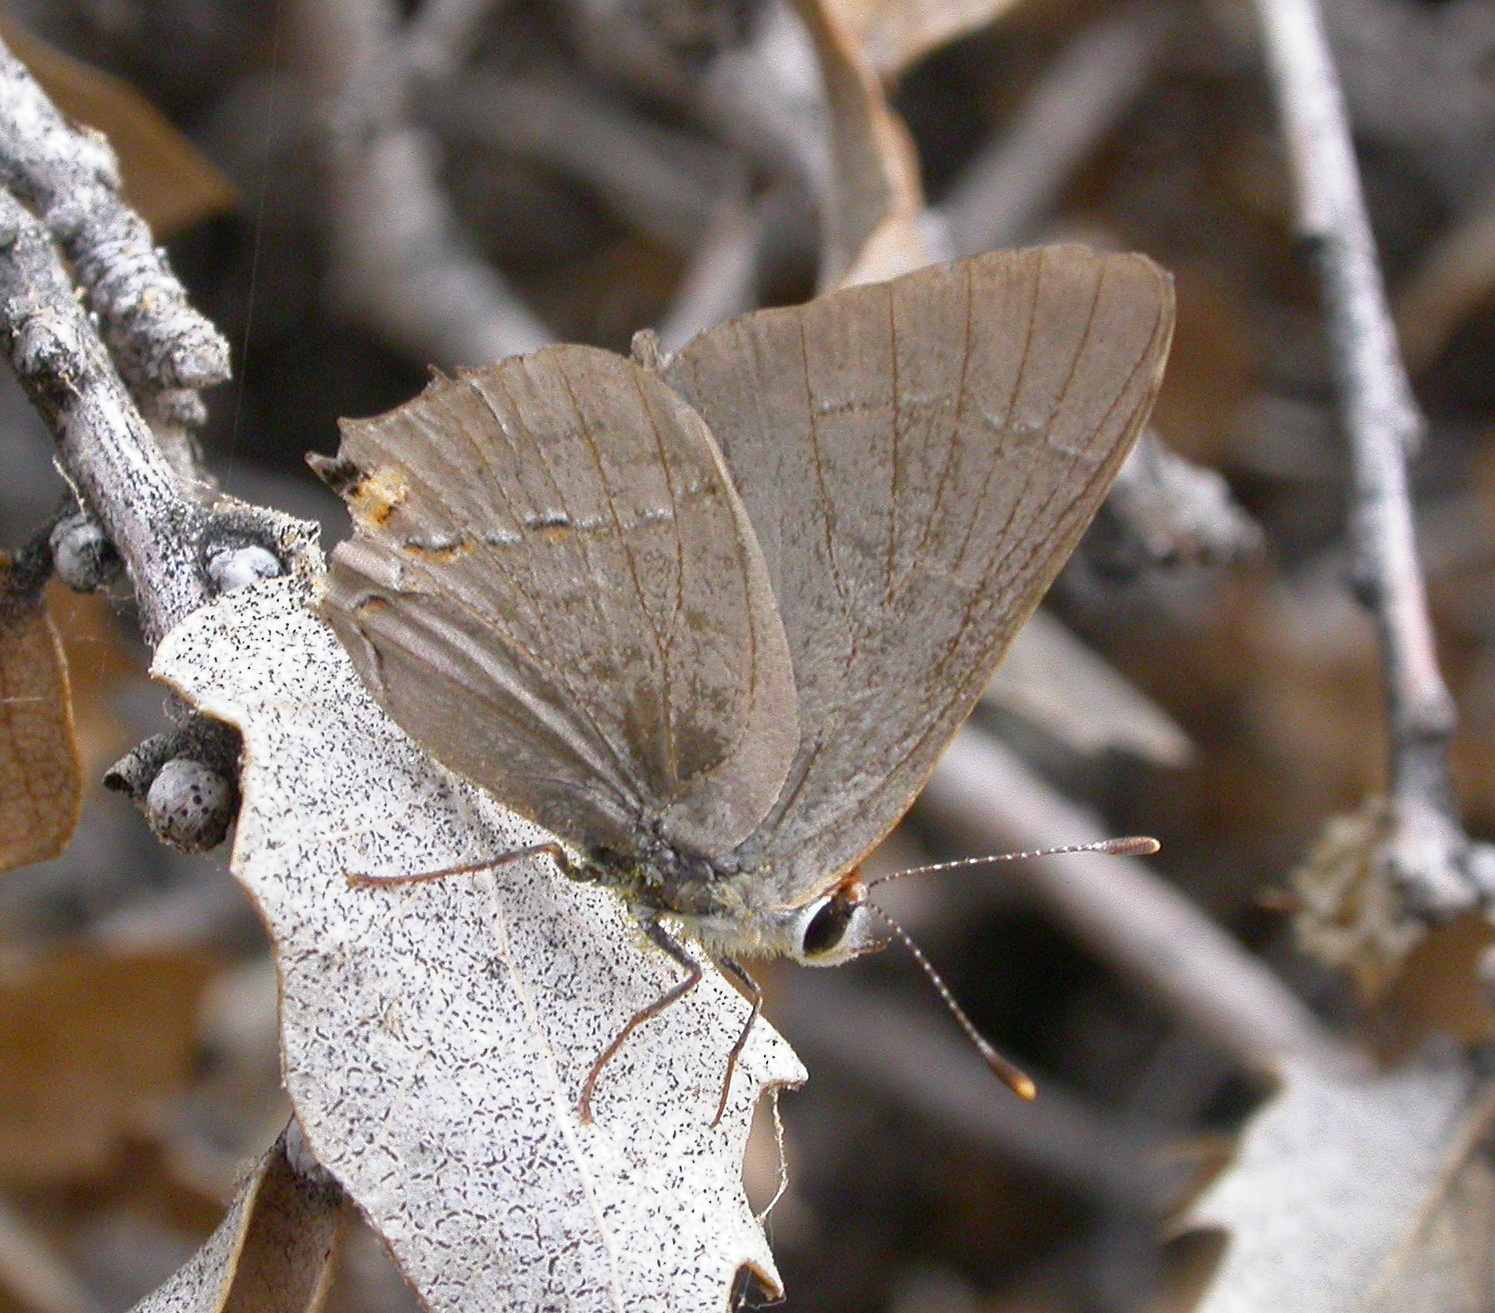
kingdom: Animalia
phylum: Arthropoda
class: Insecta
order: Lepidoptera
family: Lycaenidae
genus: Strymon
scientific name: Strymon melinus
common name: Gray hairstreak
